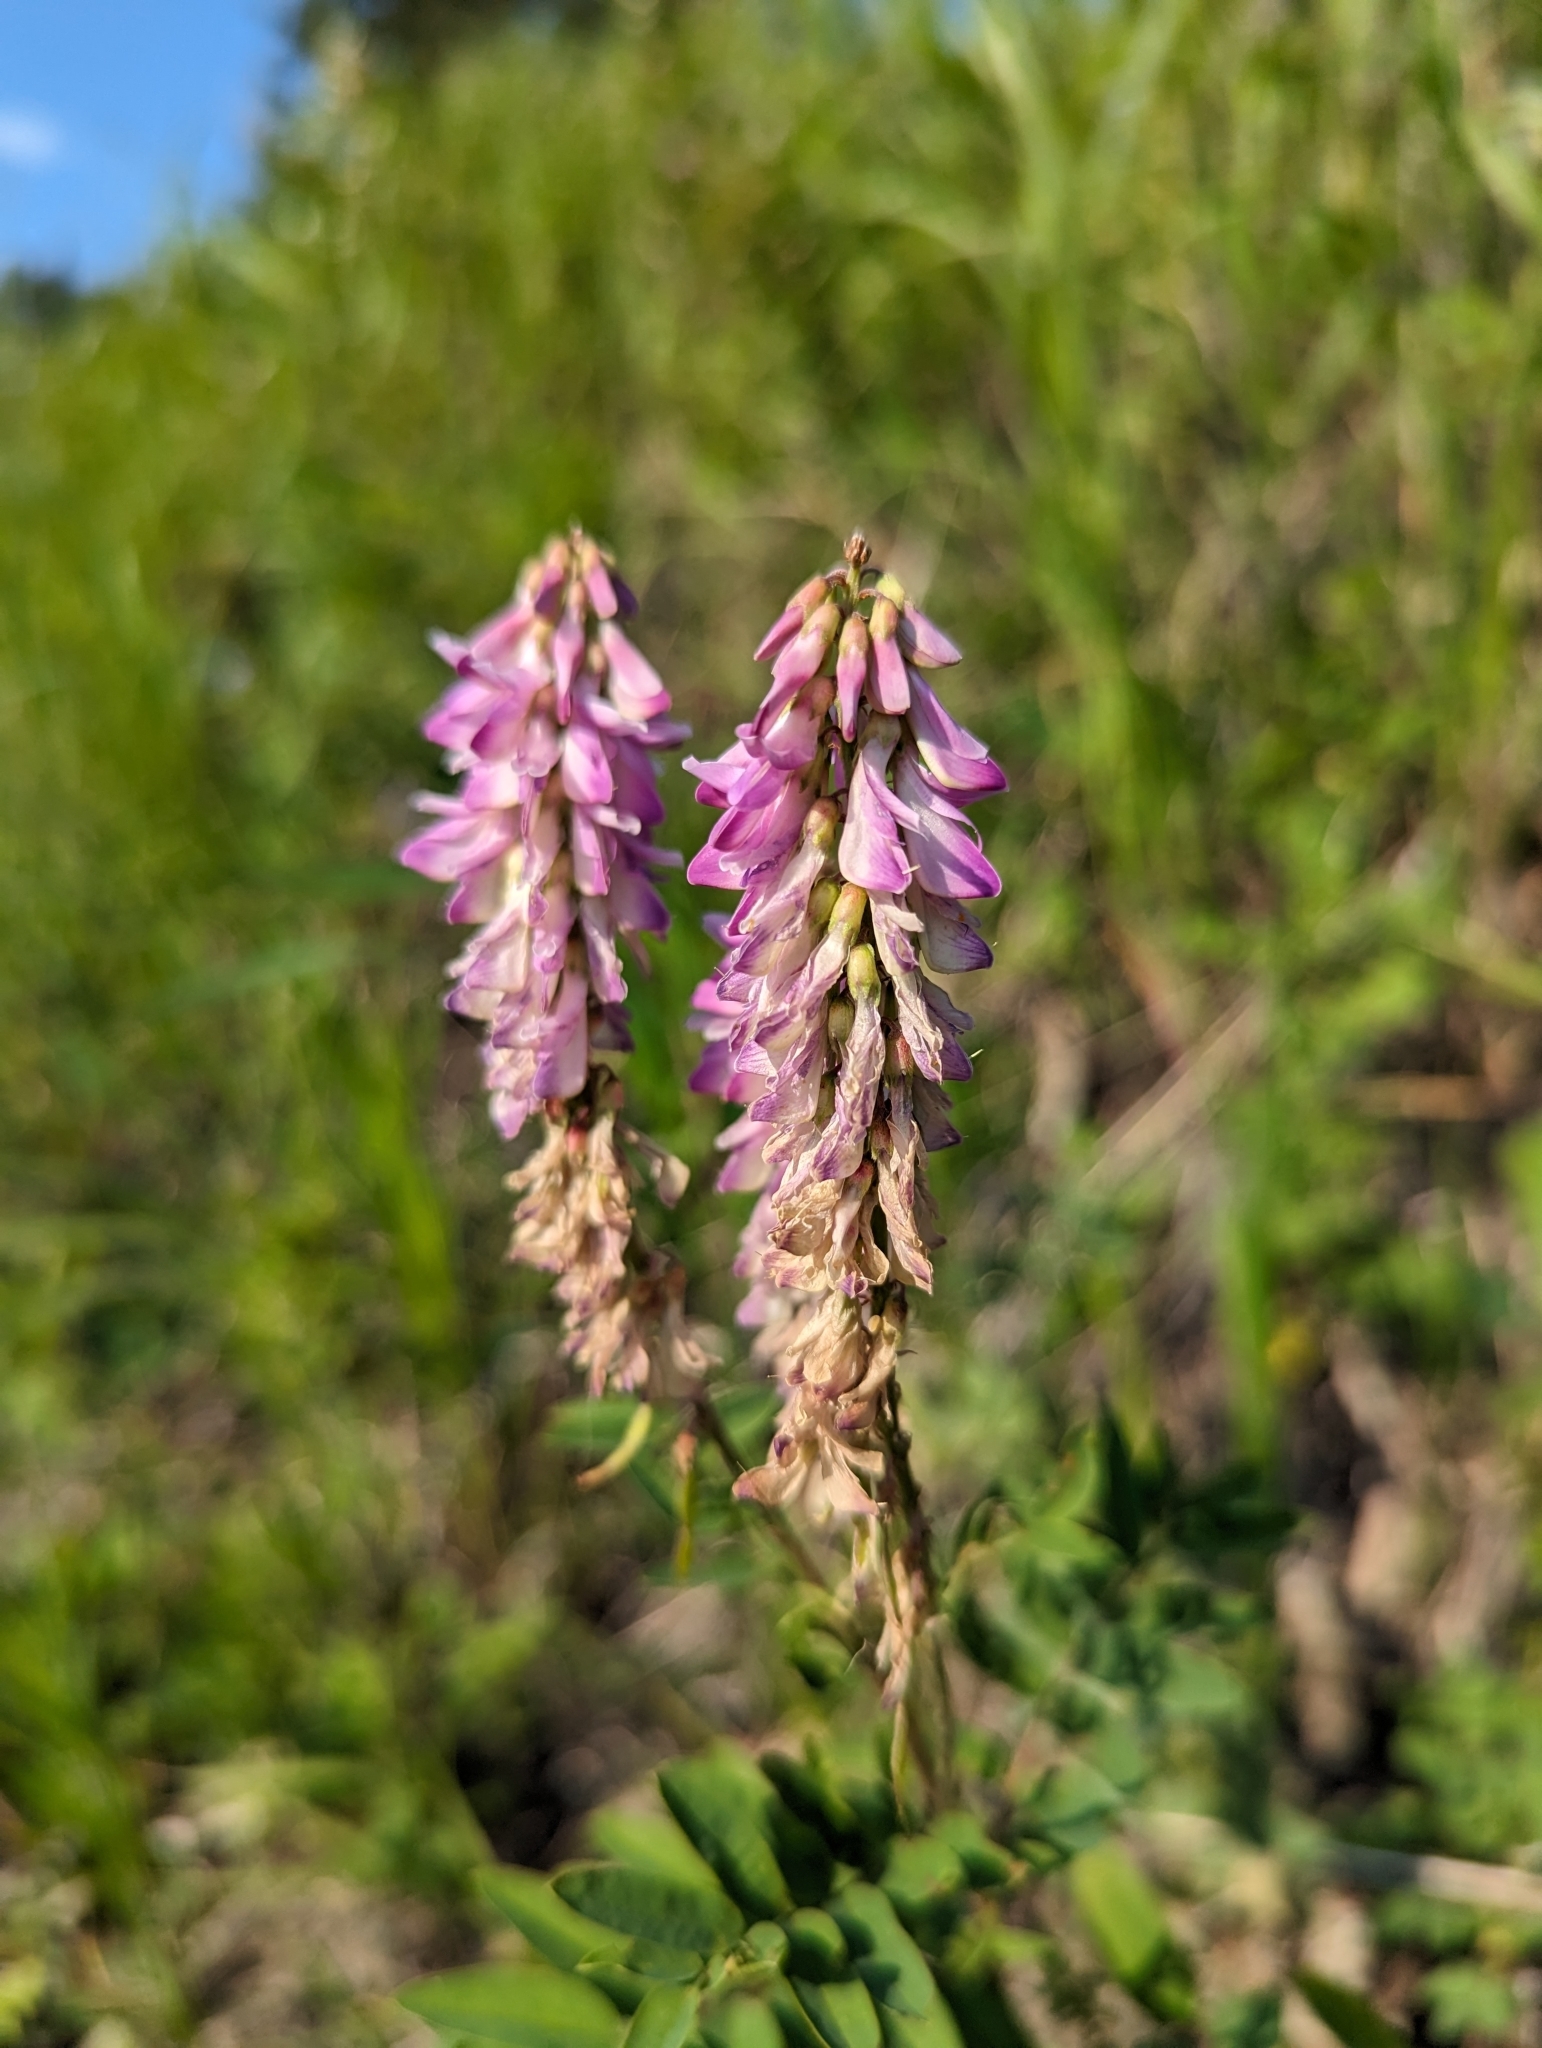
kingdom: Plantae
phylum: Tracheophyta
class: Magnoliopsida
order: Fabales
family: Fabaceae
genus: Hedysarum
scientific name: Hedysarum alpinum
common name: Alpine sweet-vetch
